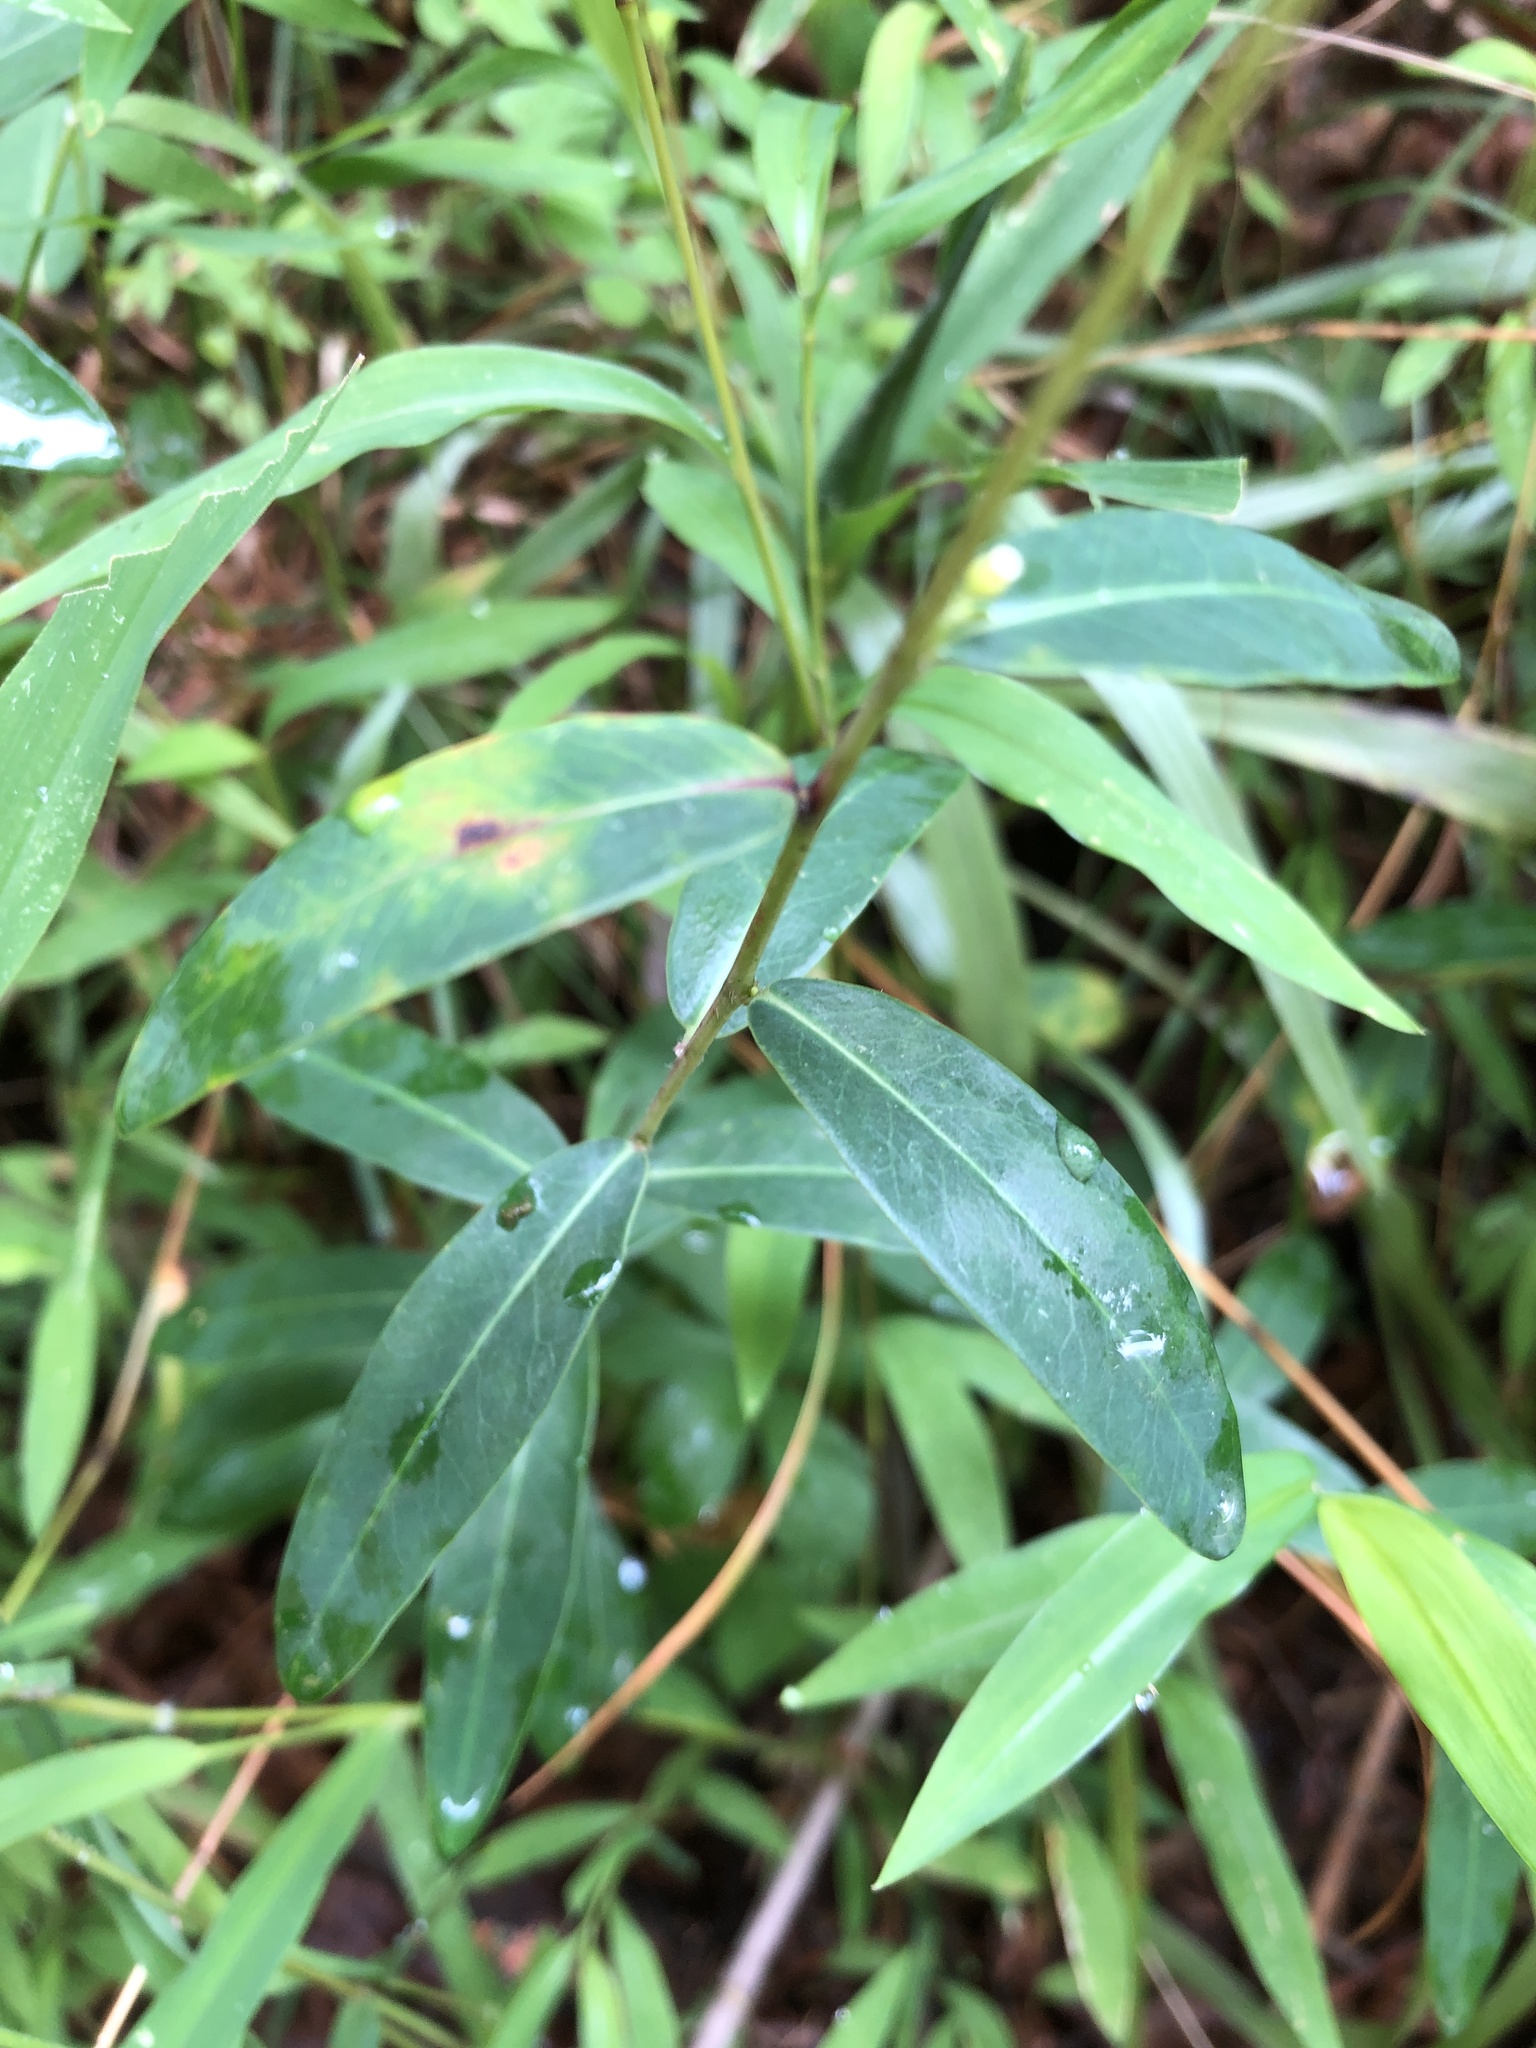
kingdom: Plantae
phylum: Tracheophyta
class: Magnoliopsida
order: Malpighiales
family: Euphorbiaceae
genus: Euphorbia
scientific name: Euphorbia corollata
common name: Flowering spurge
